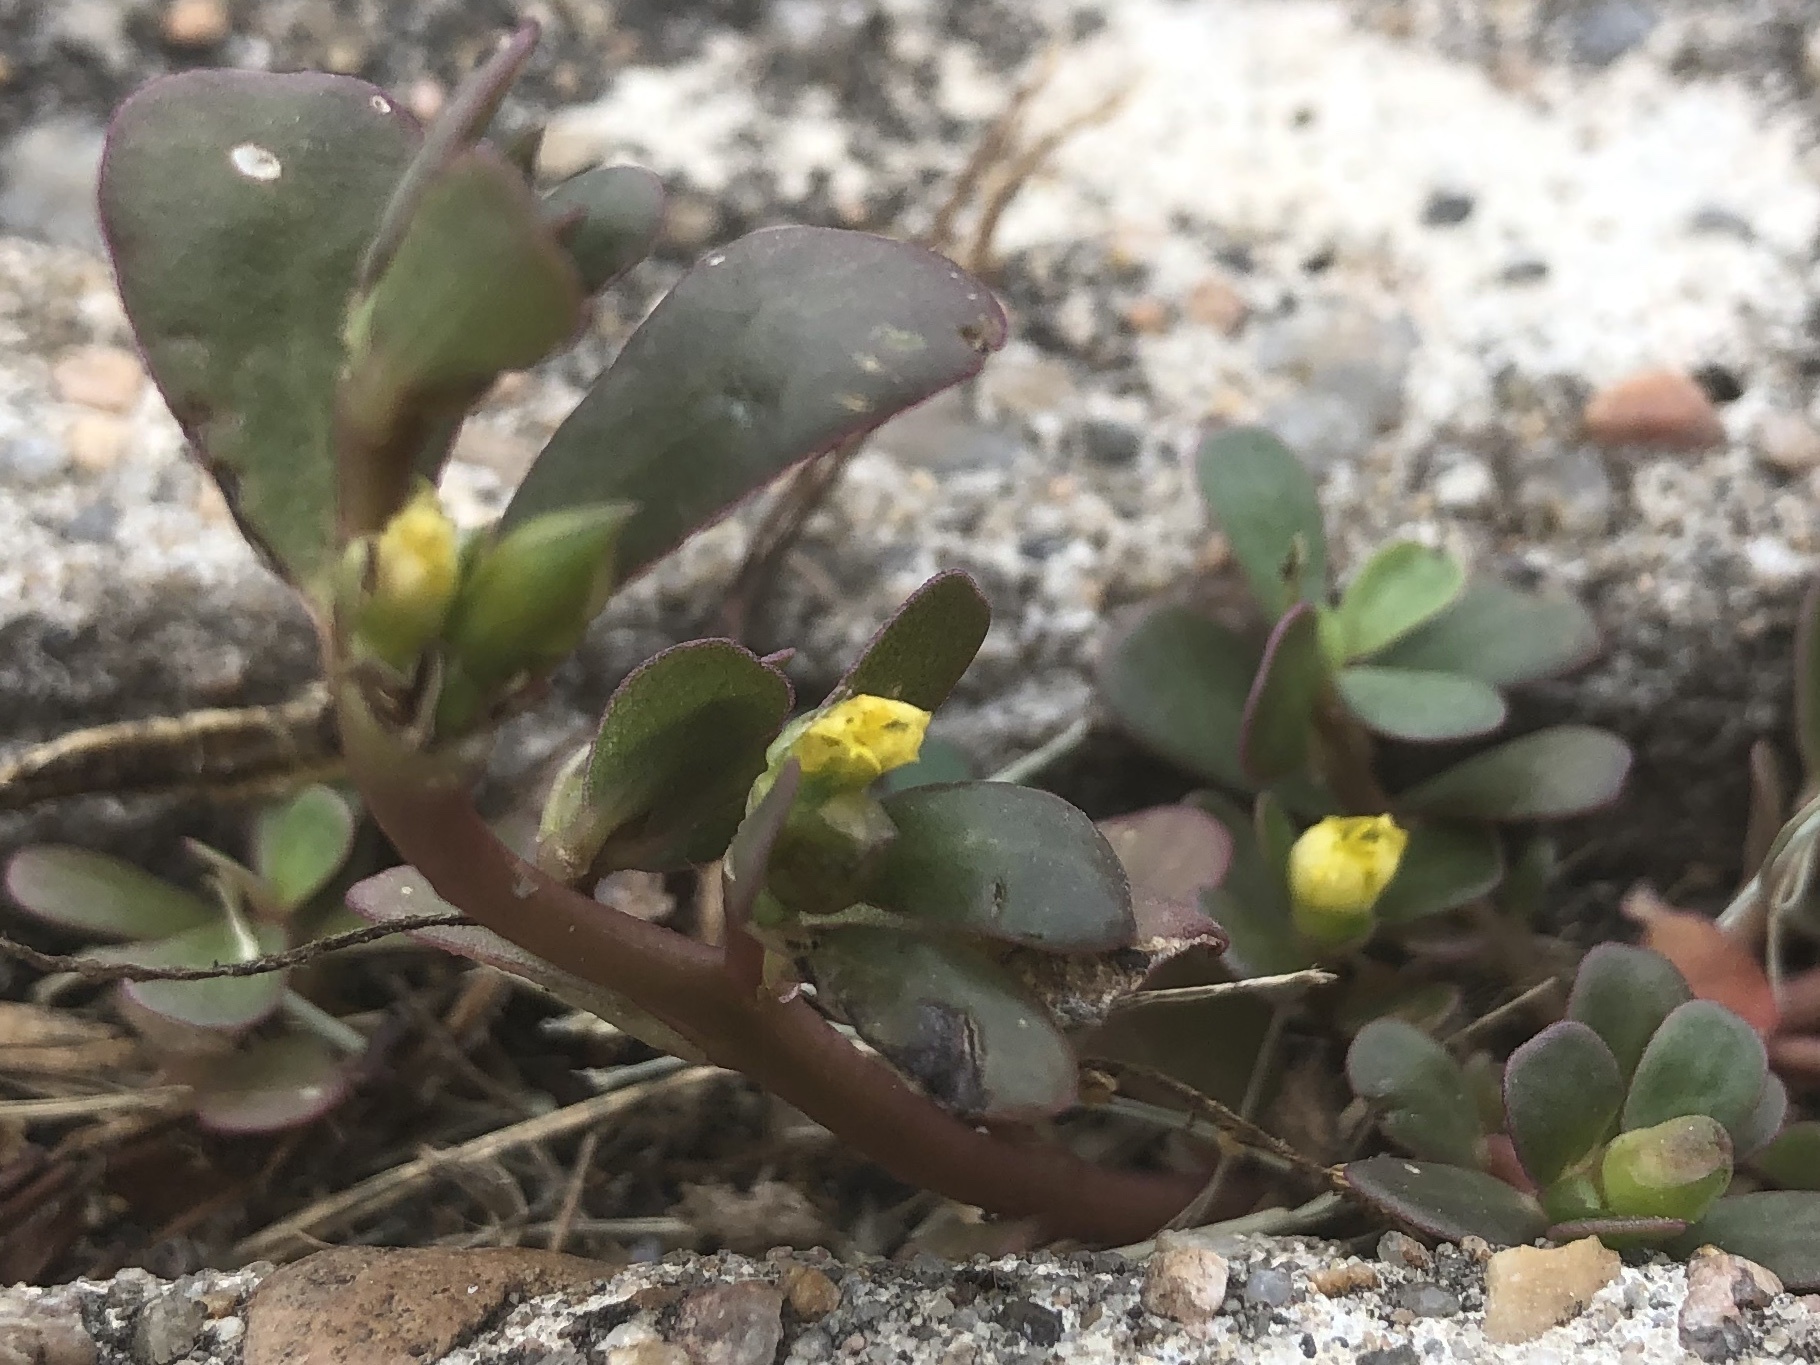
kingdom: Plantae
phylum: Tracheophyta
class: Magnoliopsida
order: Caryophyllales
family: Portulacaceae
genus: Portulaca
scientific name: Portulaca oleracea
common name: Common purslane
